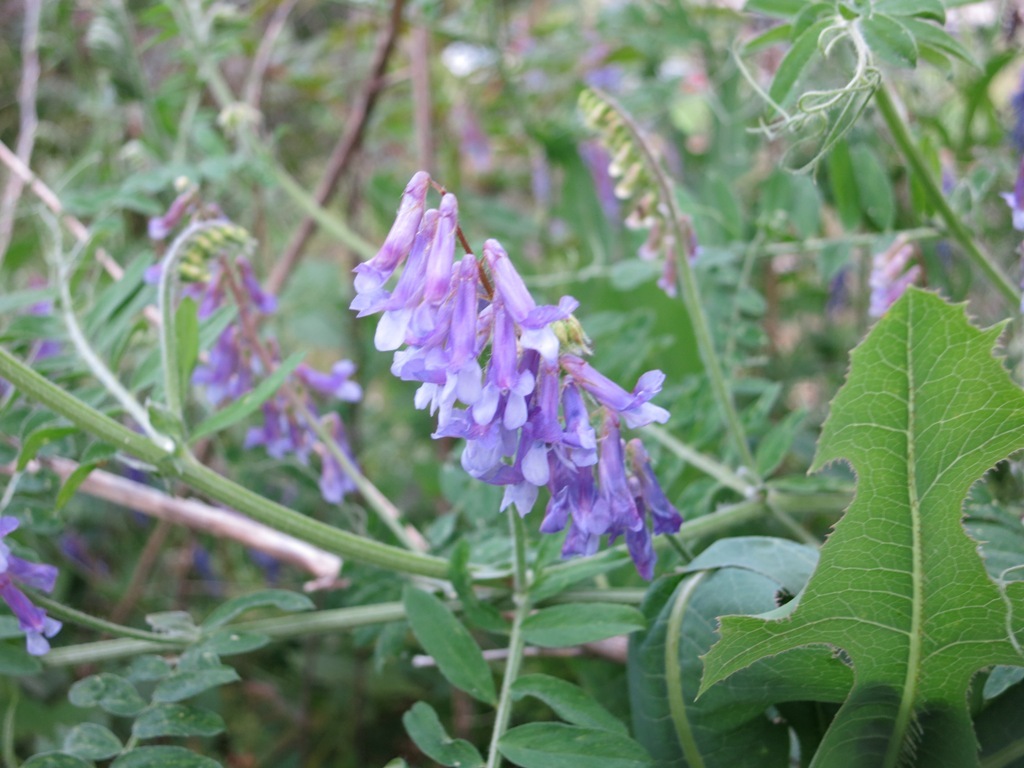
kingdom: Plantae
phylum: Tracheophyta
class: Magnoliopsida
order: Fabales
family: Fabaceae
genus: Vicia
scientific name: Vicia villosa
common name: Fodder vetch
